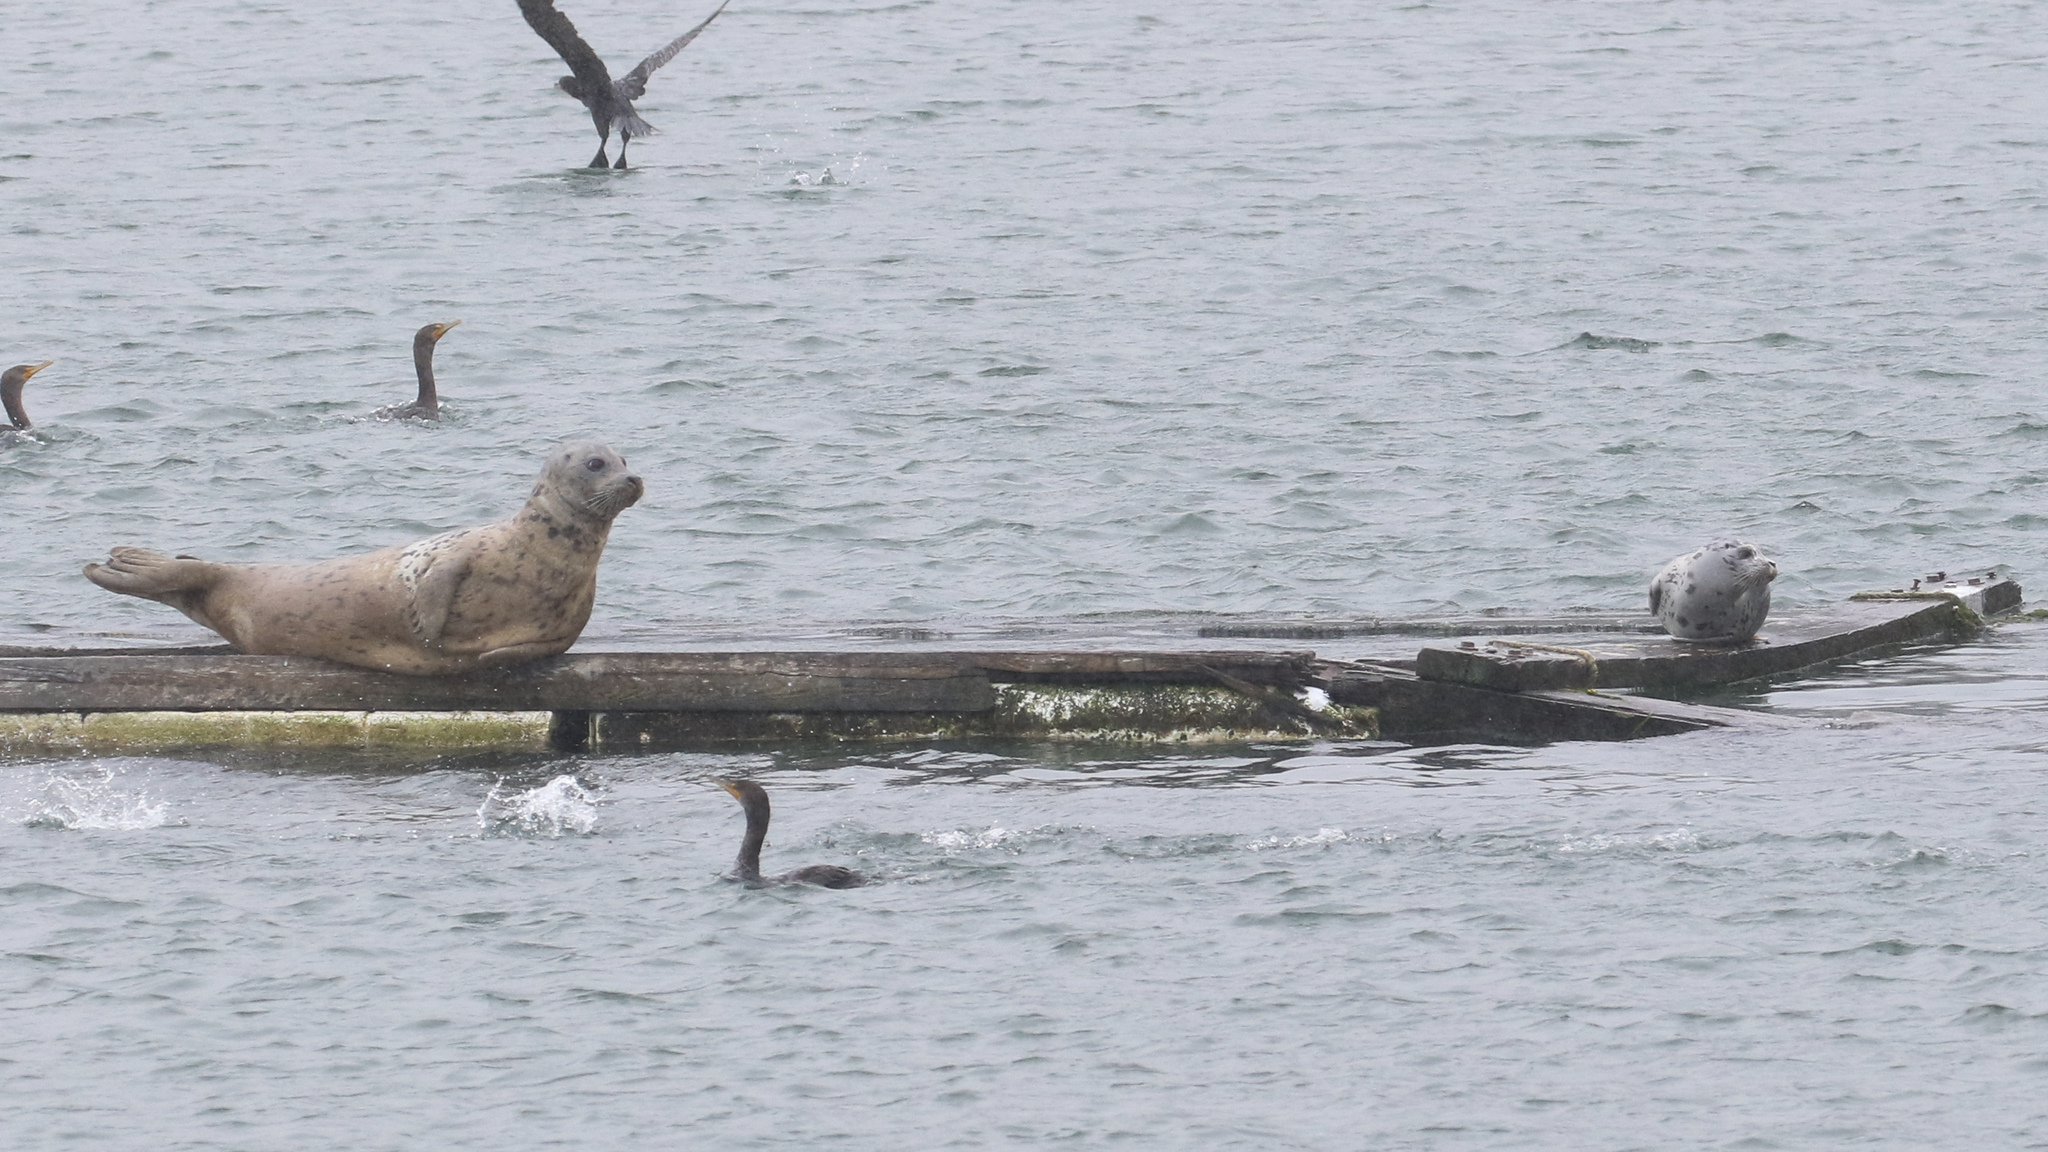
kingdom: Animalia
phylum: Chordata
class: Mammalia
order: Carnivora
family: Phocidae
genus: Phoca
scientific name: Phoca vitulina
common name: Harbor seal
